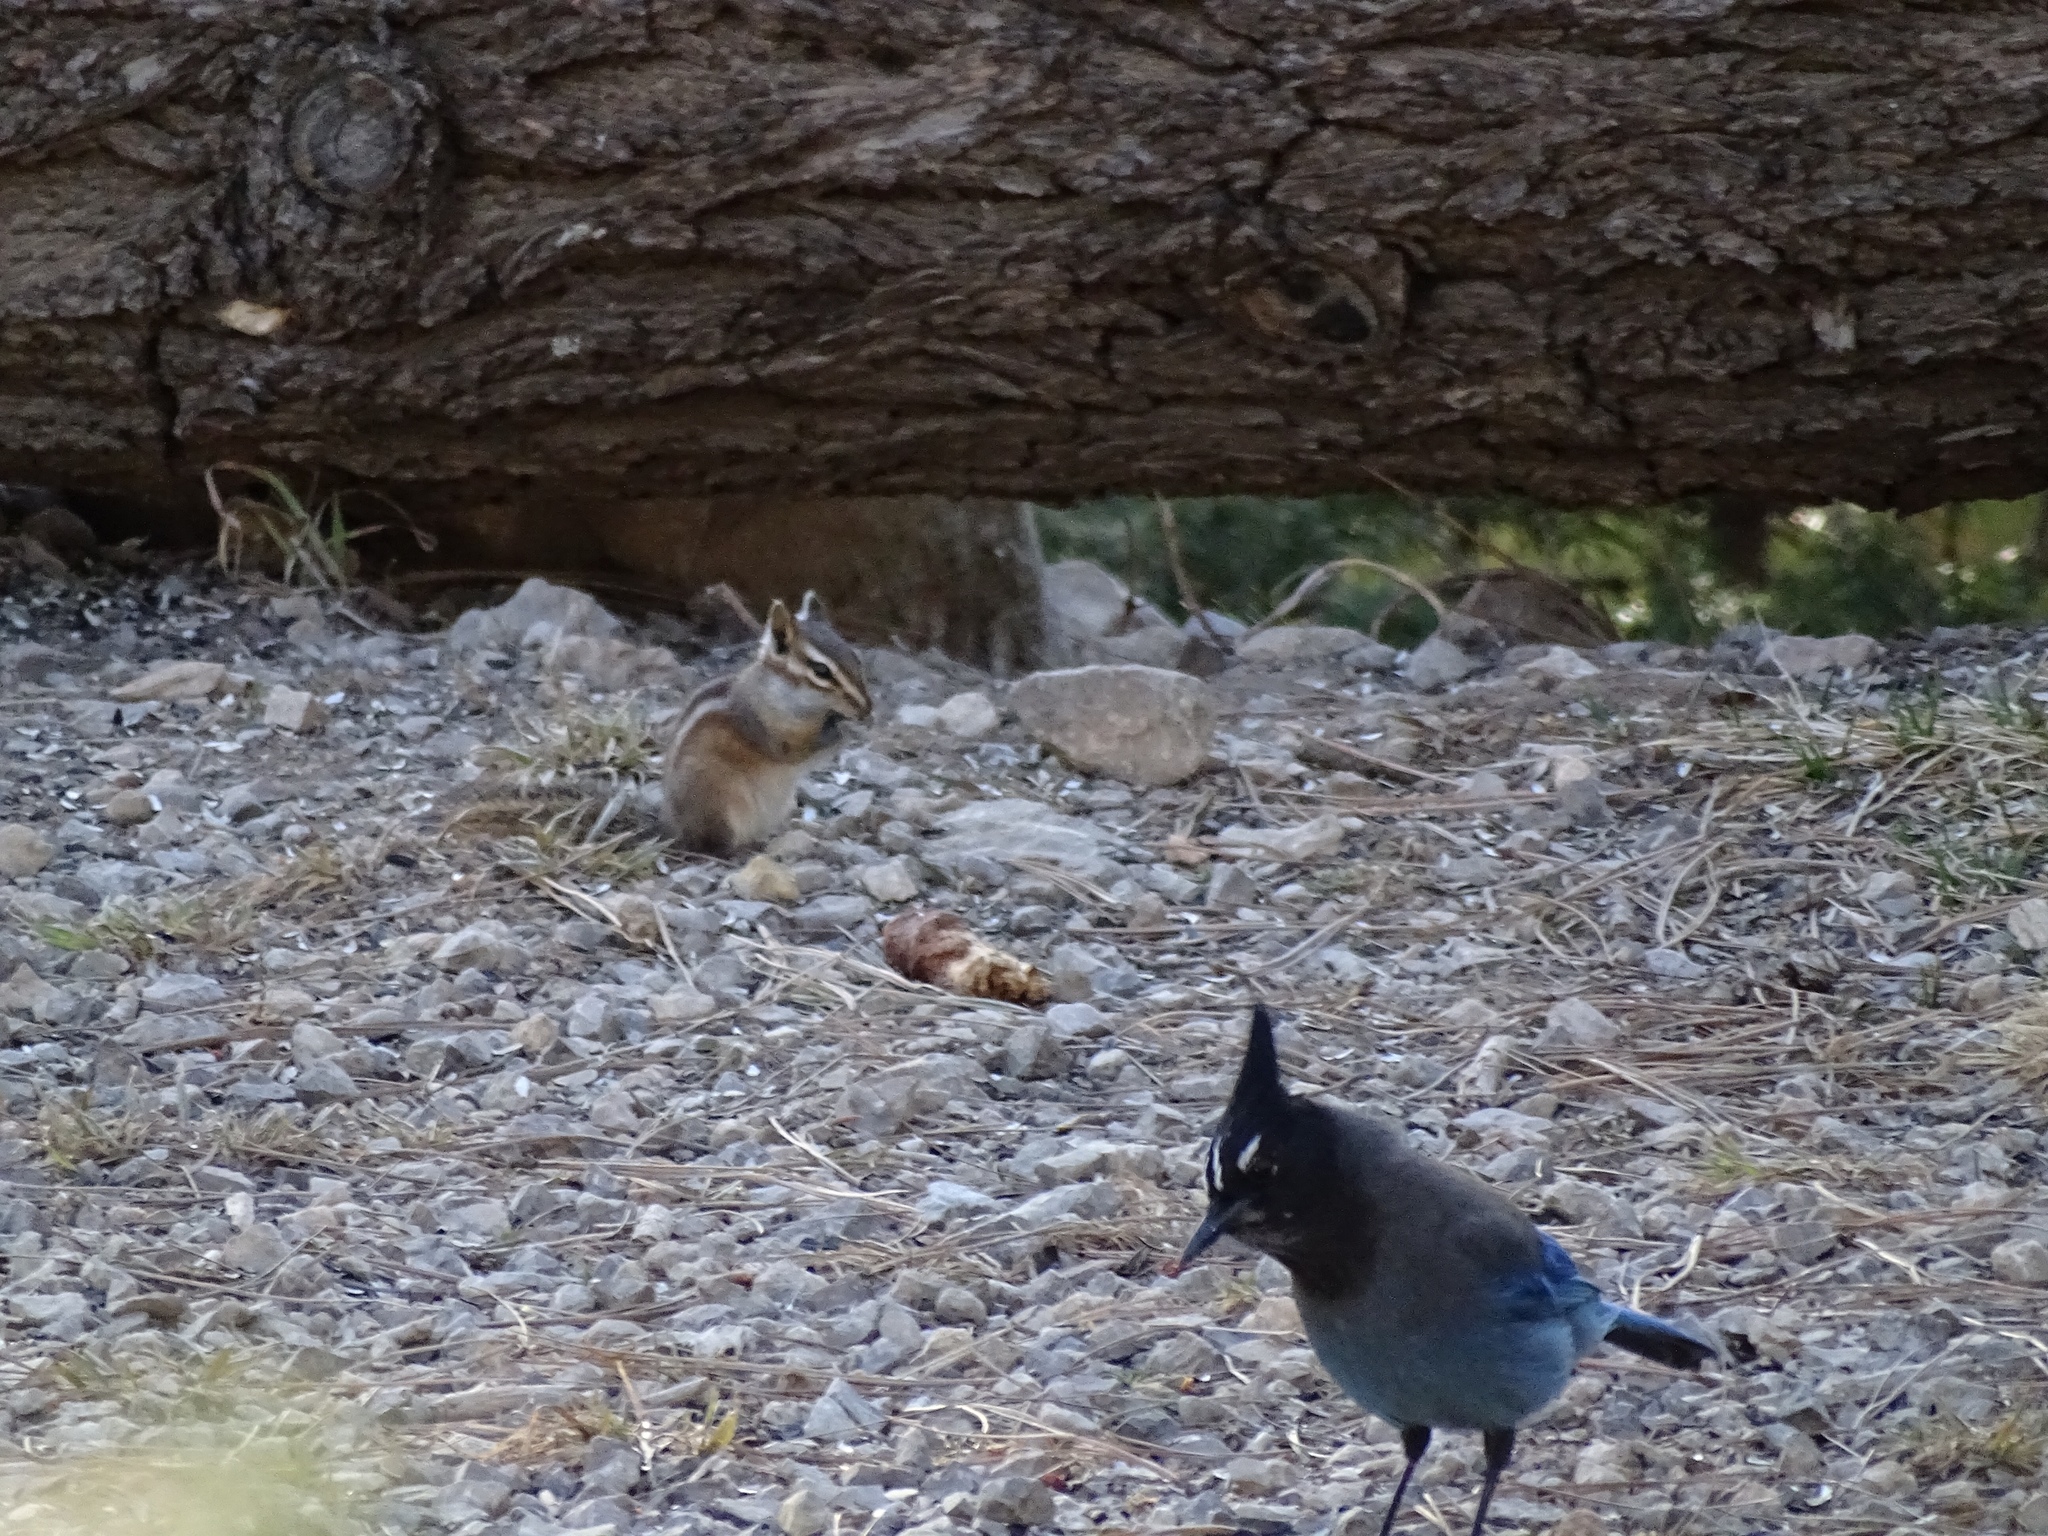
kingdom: Animalia
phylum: Chordata
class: Mammalia
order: Rodentia
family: Sciuridae
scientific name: Sciuridae
